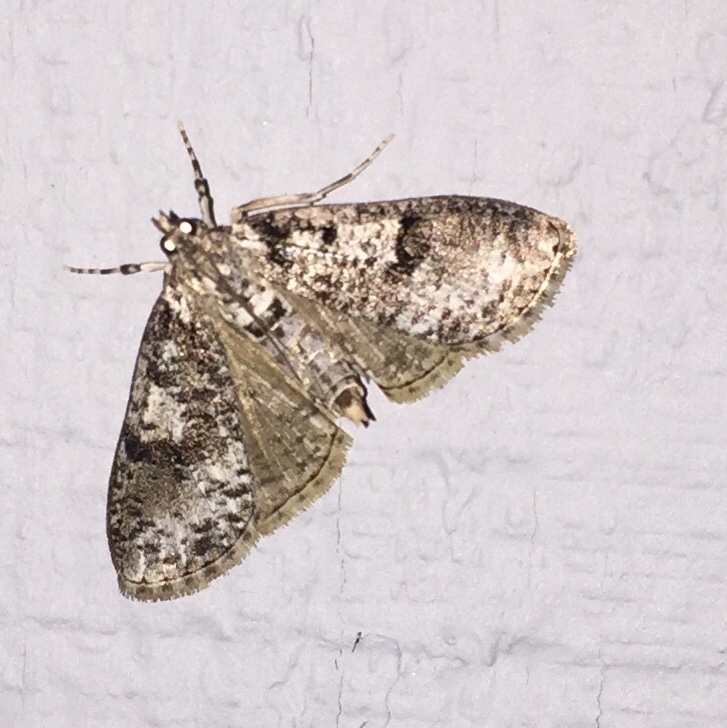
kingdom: Animalia
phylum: Arthropoda
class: Insecta
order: Lepidoptera
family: Crambidae
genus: Palpita
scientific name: Palpita magniferalis
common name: Splendid palpita moth
